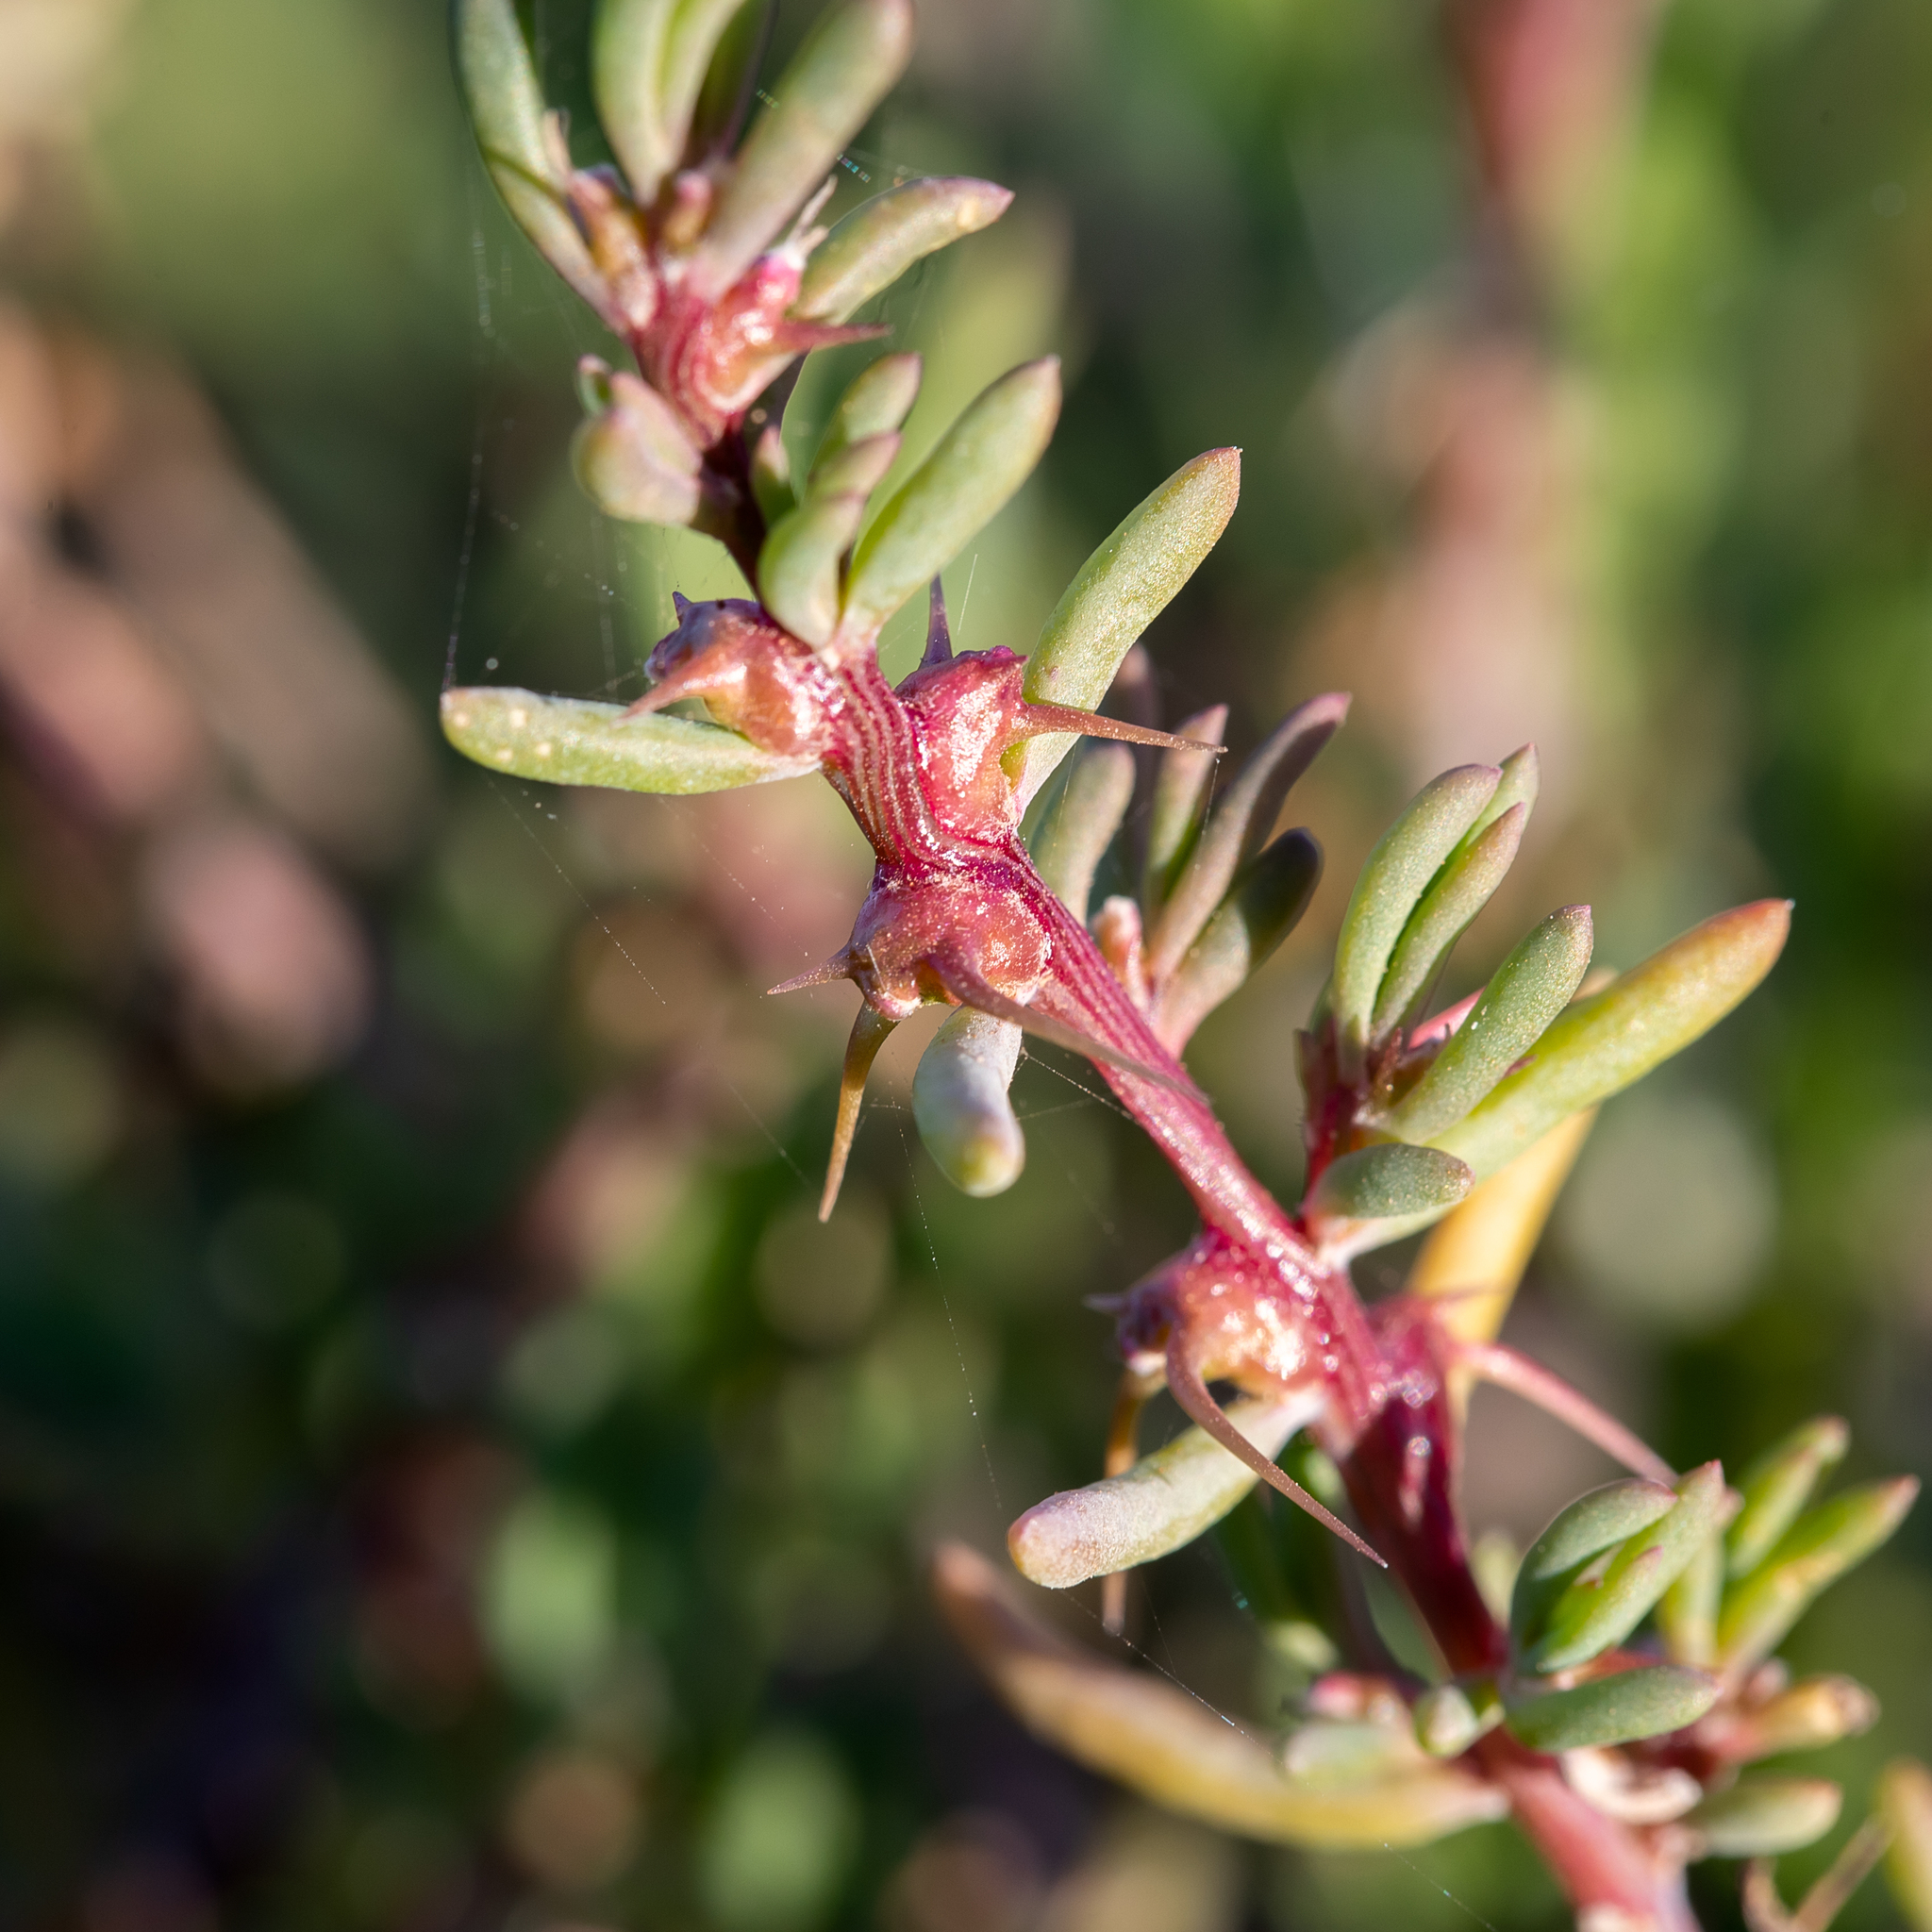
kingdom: Plantae
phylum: Tracheophyta
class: Magnoliopsida
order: Caryophyllales
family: Amaranthaceae
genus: Sclerolaena
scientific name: Sclerolaena tricuspis
